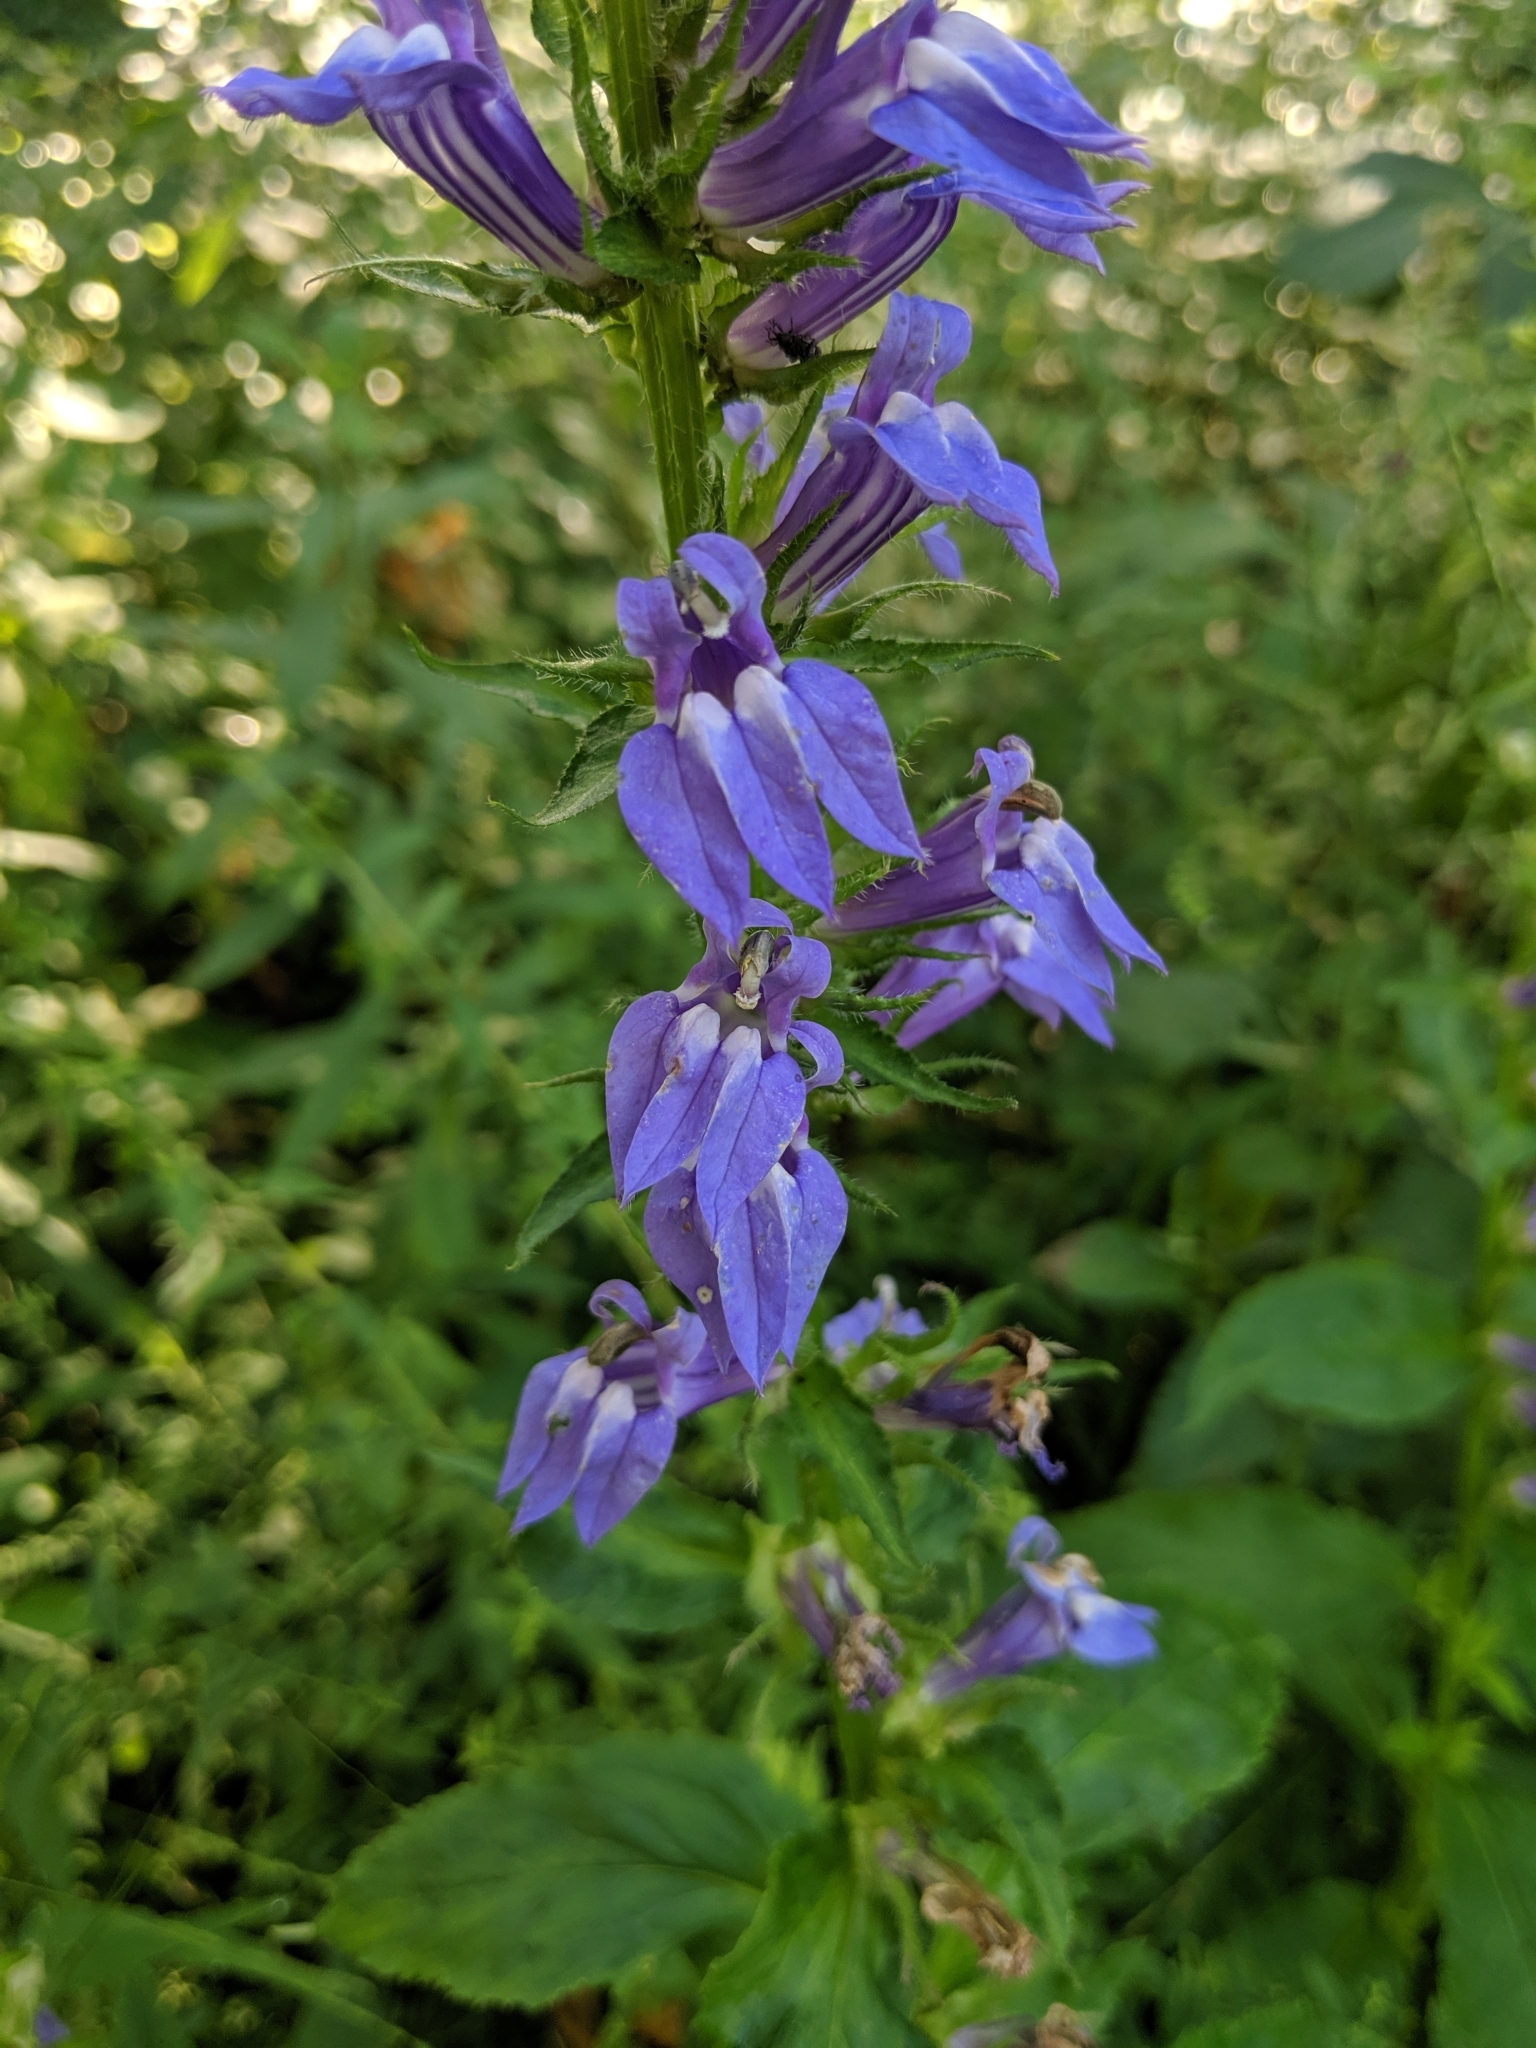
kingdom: Plantae
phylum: Tracheophyta
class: Magnoliopsida
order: Asterales
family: Campanulaceae
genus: Lobelia
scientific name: Lobelia siphilitica
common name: Great lobelia
